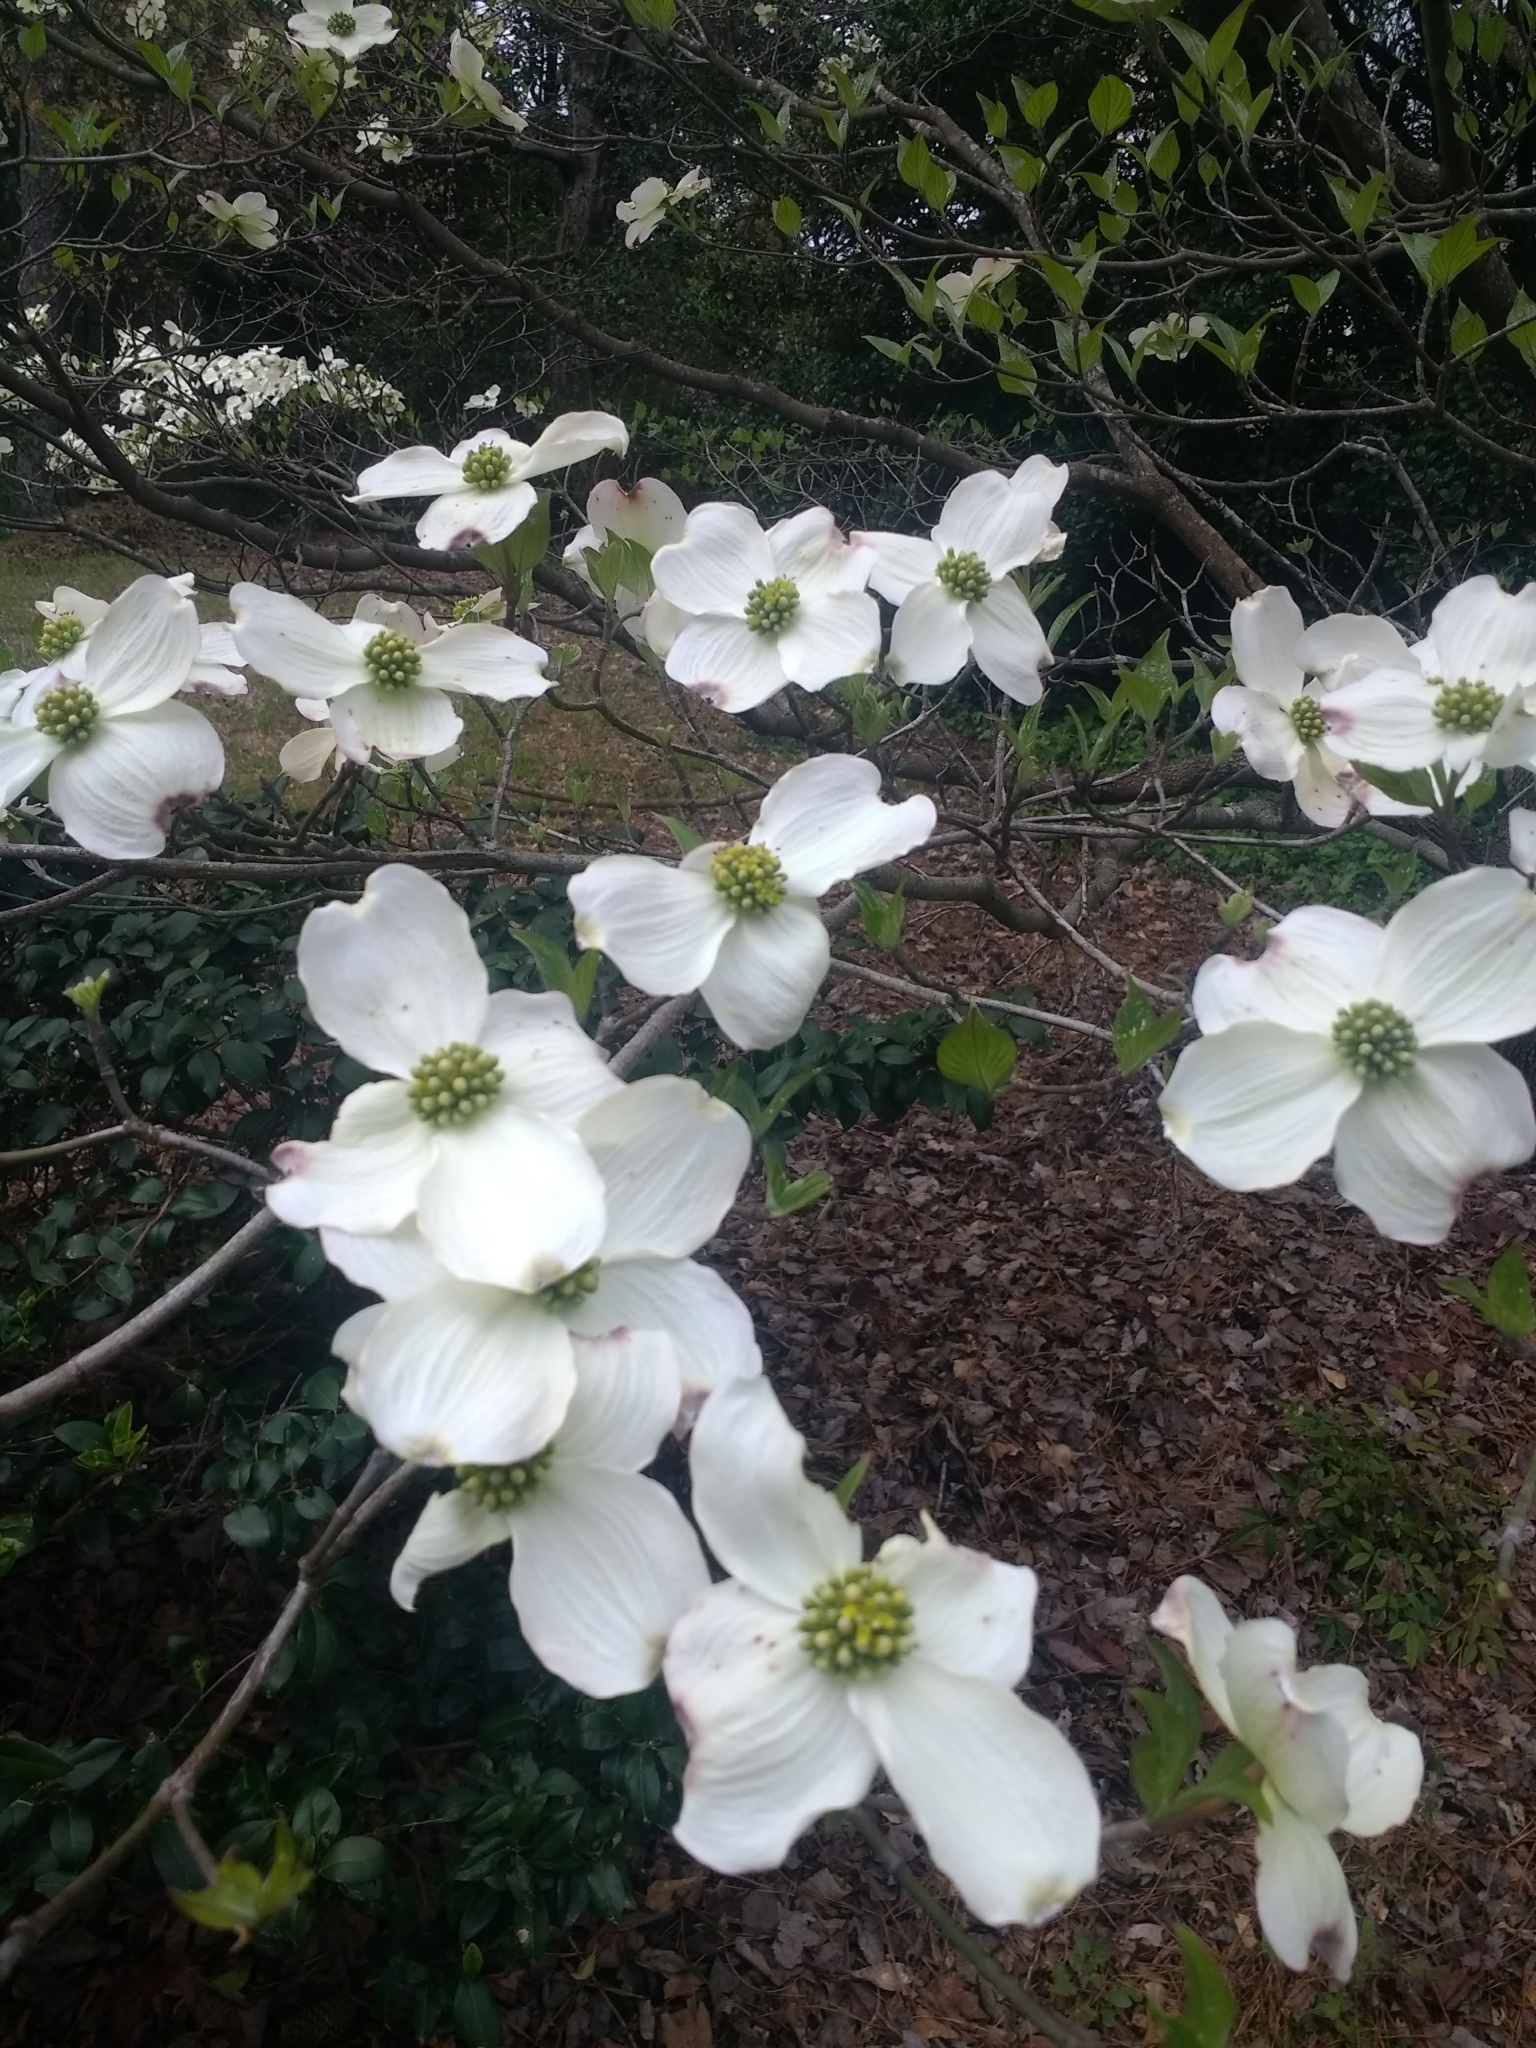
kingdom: Plantae
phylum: Tracheophyta
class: Magnoliopsida
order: Cornales
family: Cornaceae
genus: Cornus
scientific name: Cornus florida
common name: Flowering dogwood
